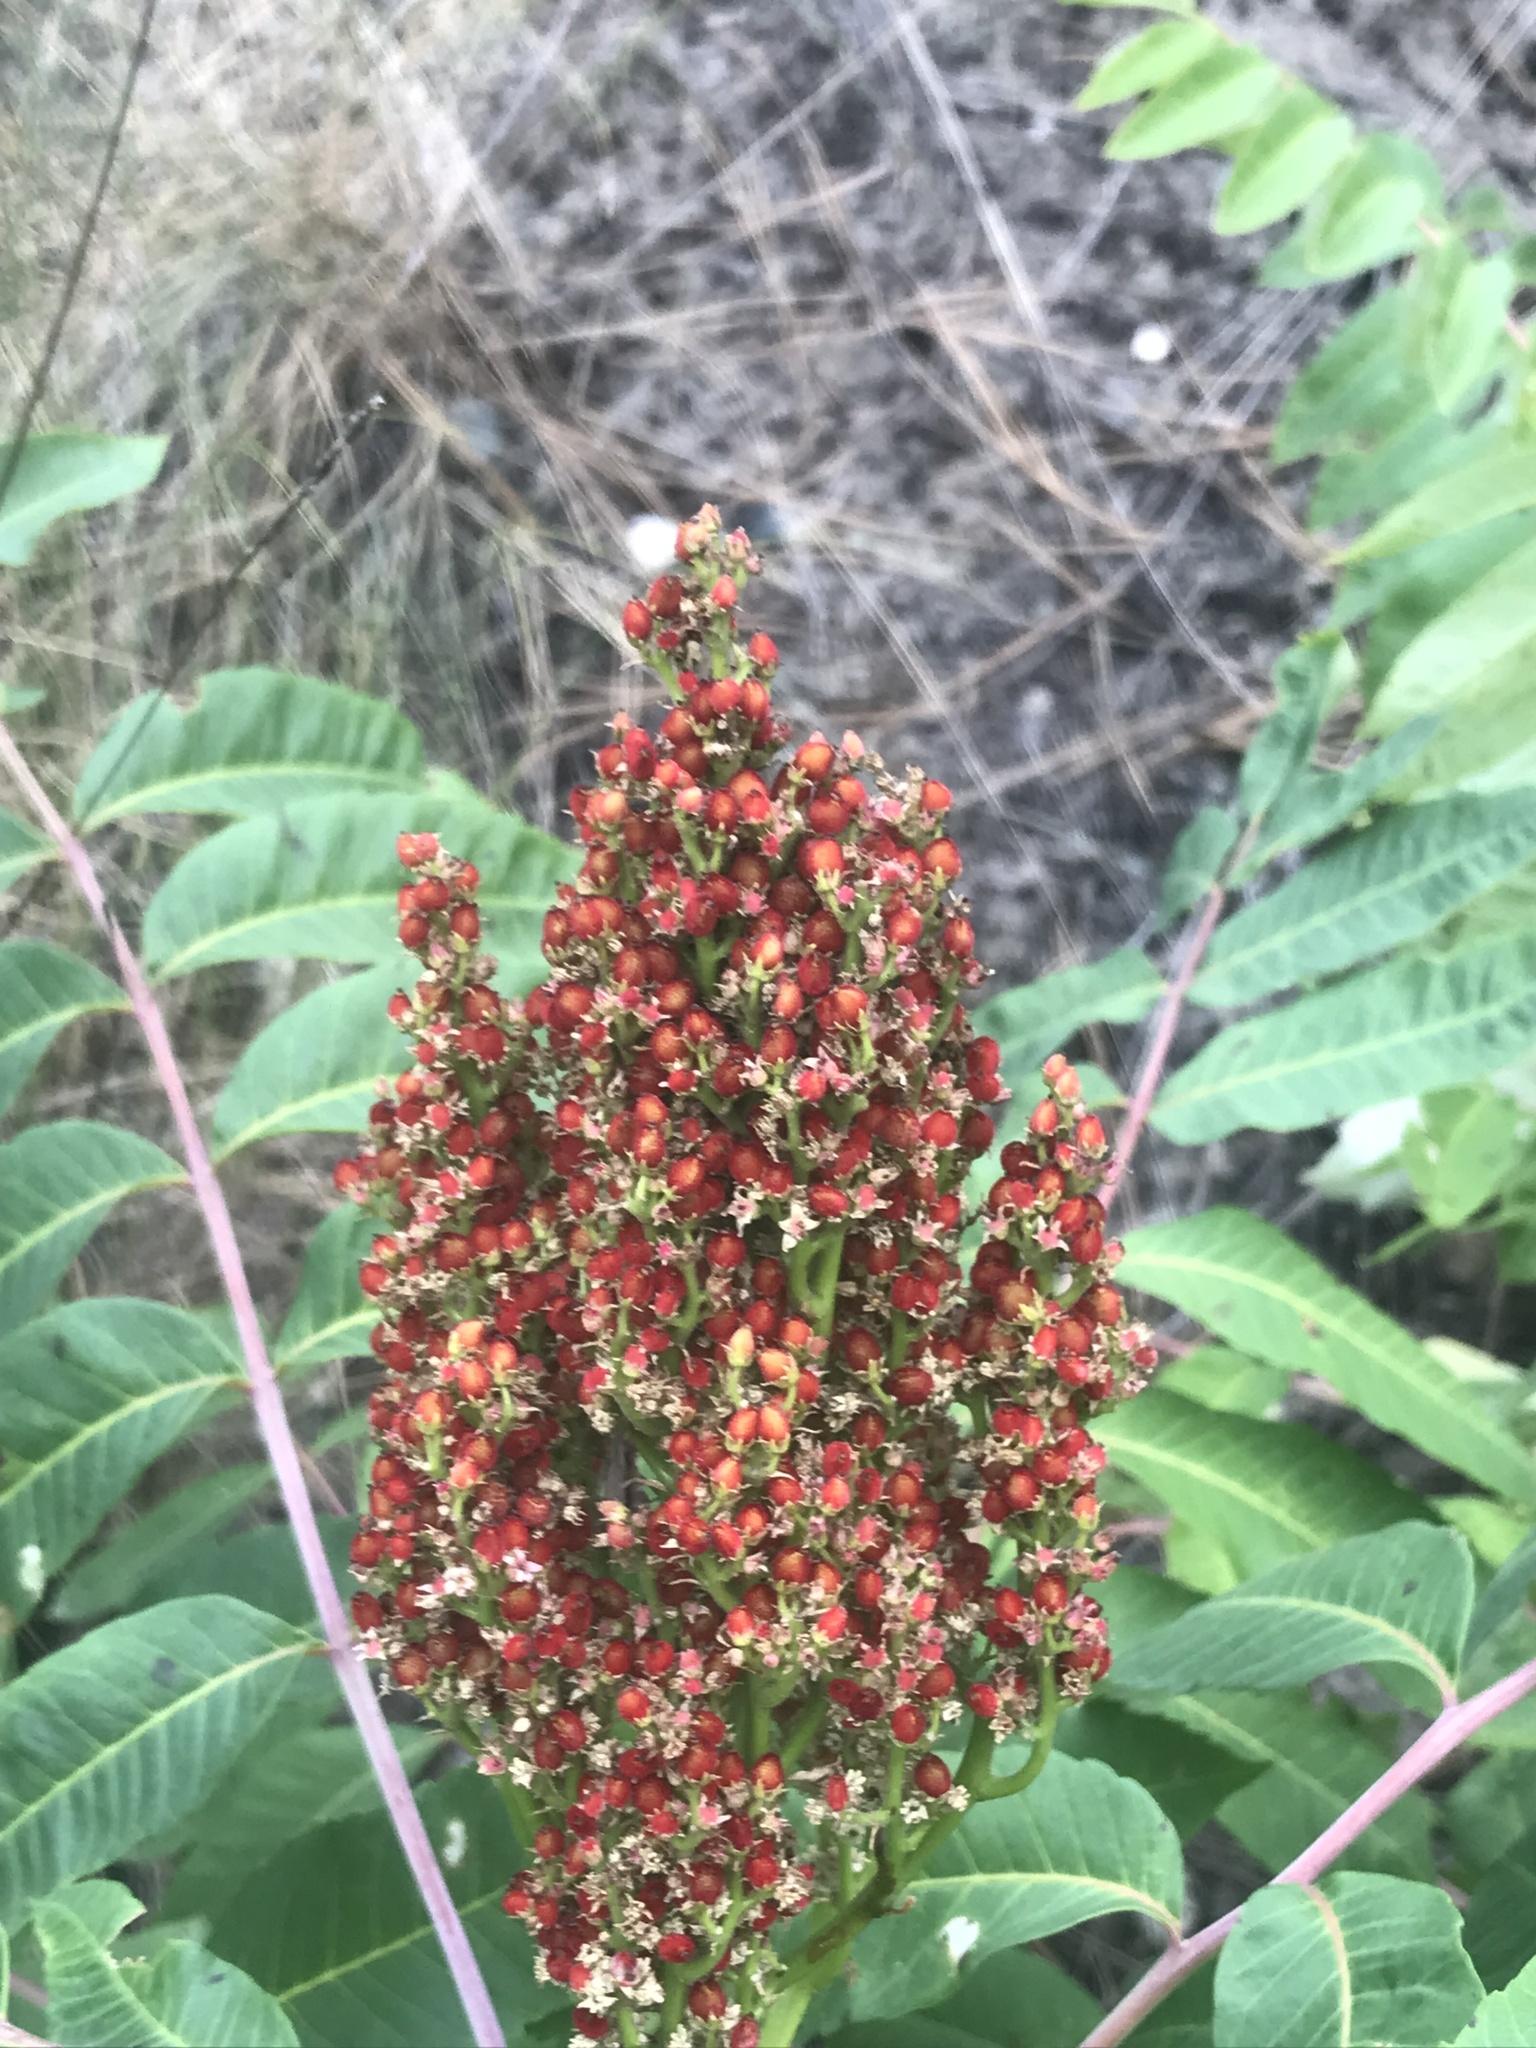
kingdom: Plantae
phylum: Tracheophyta
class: Magnoliopsida
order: Sapindales
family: Anacardiaceae
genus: Rhus
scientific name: Rhus glabra
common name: Scarlet sumac
